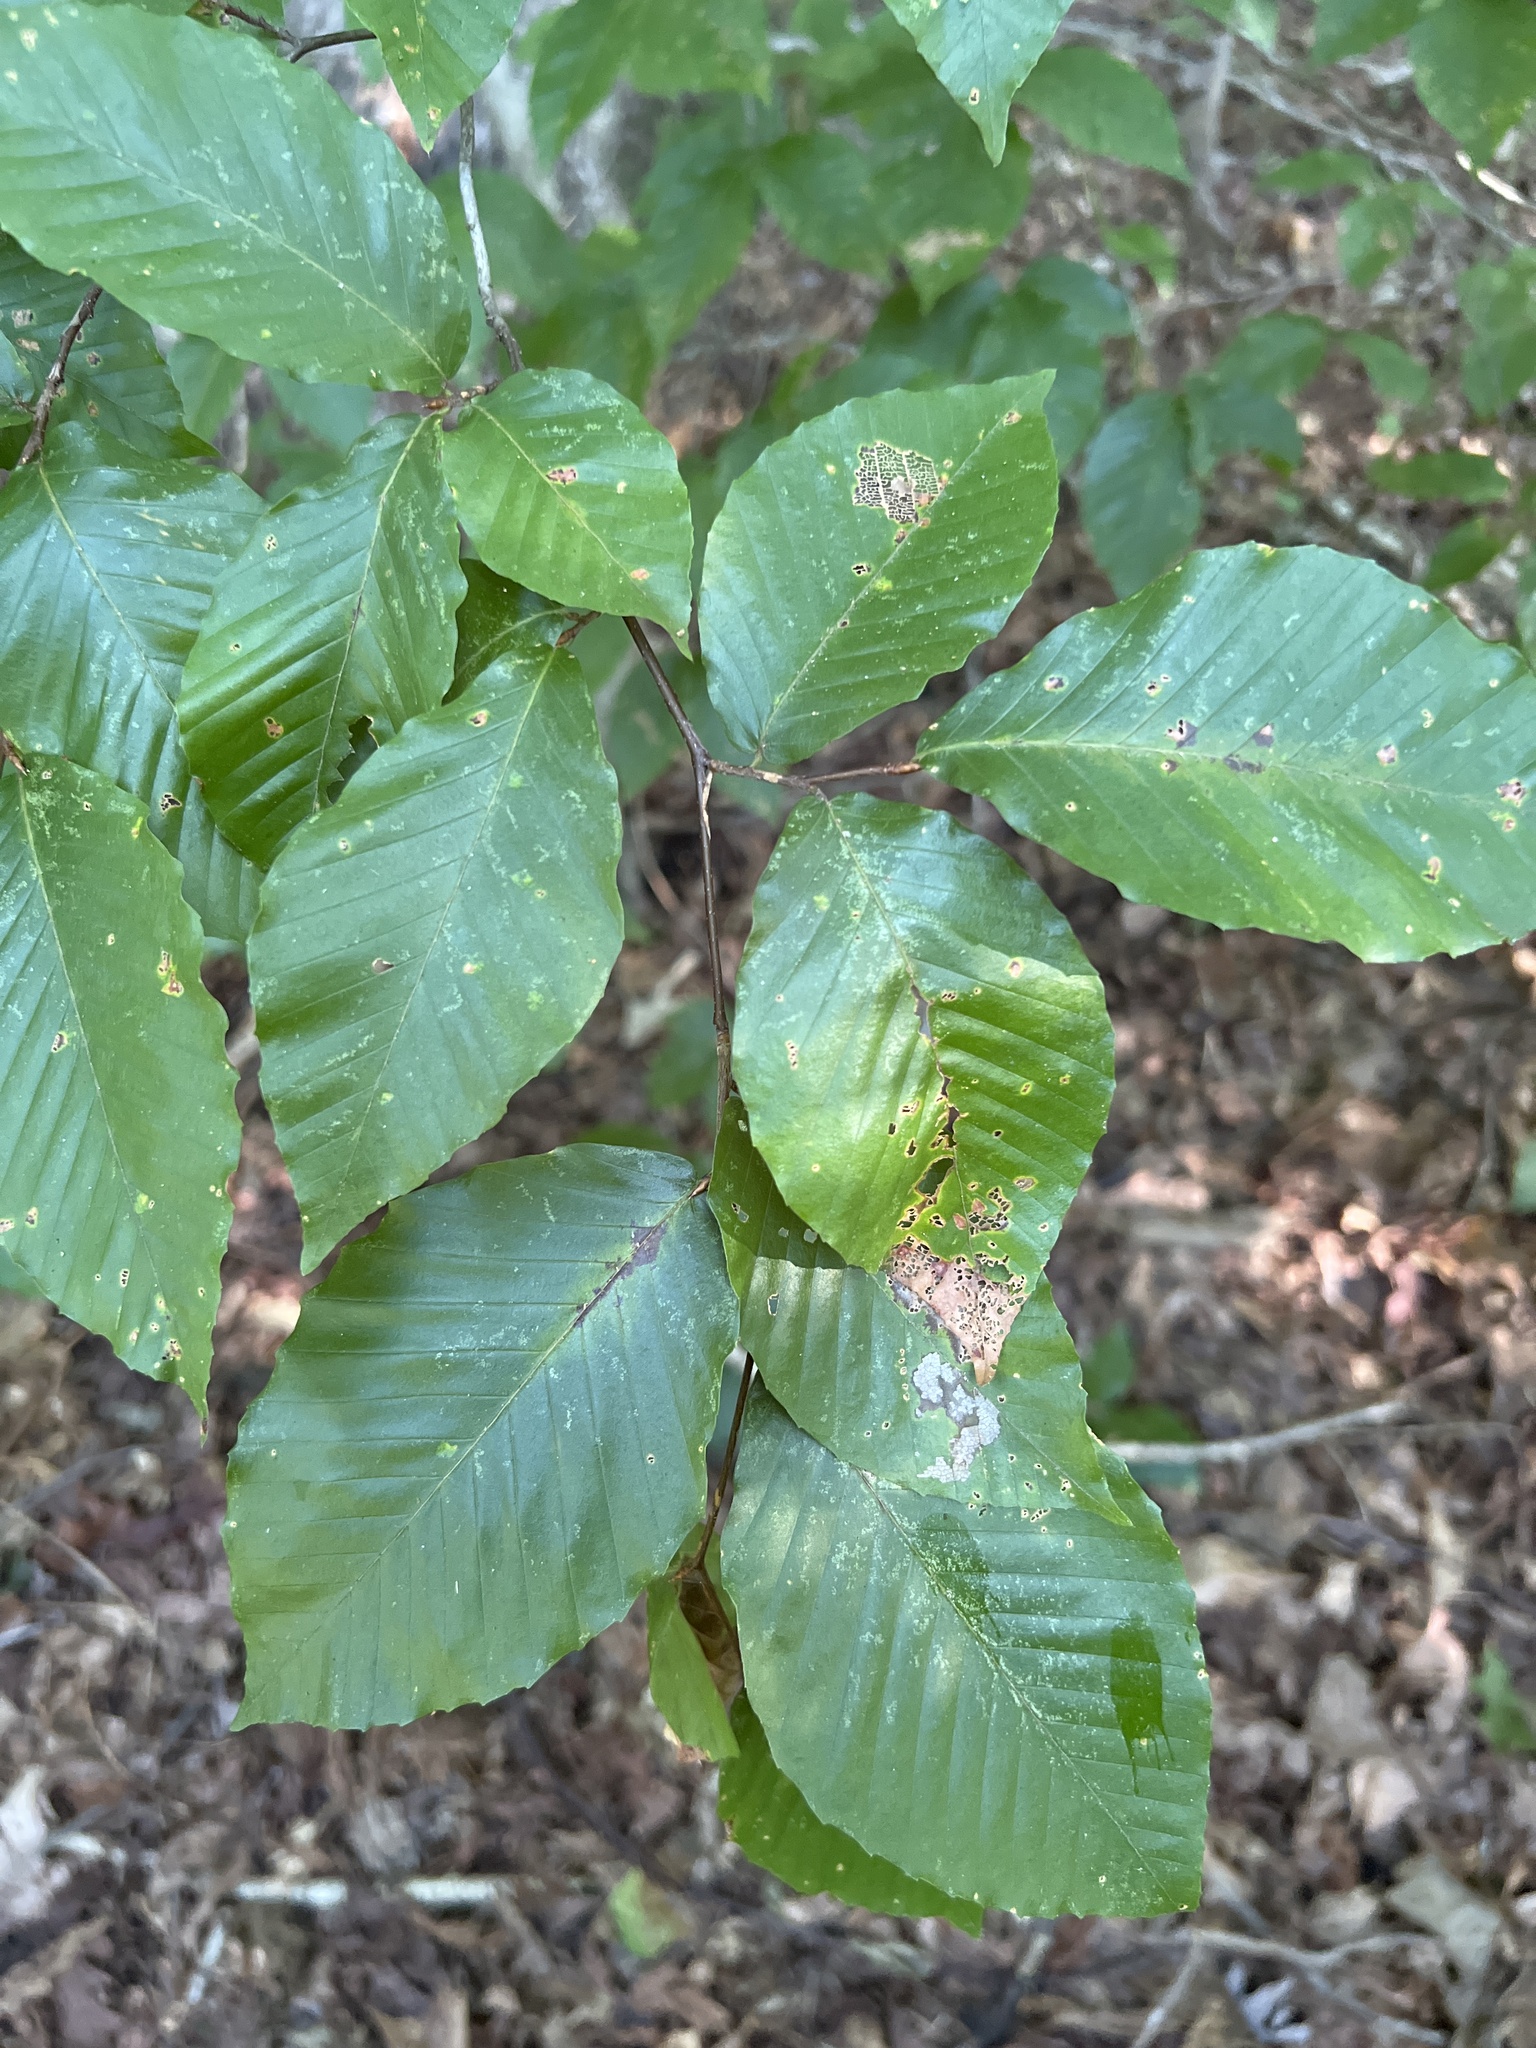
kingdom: Plantae
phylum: Tracheophyta
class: Magnoliopsida
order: Fagales
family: Fagaceae
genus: Fagus
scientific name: Fagus grandifolia
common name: American beech
